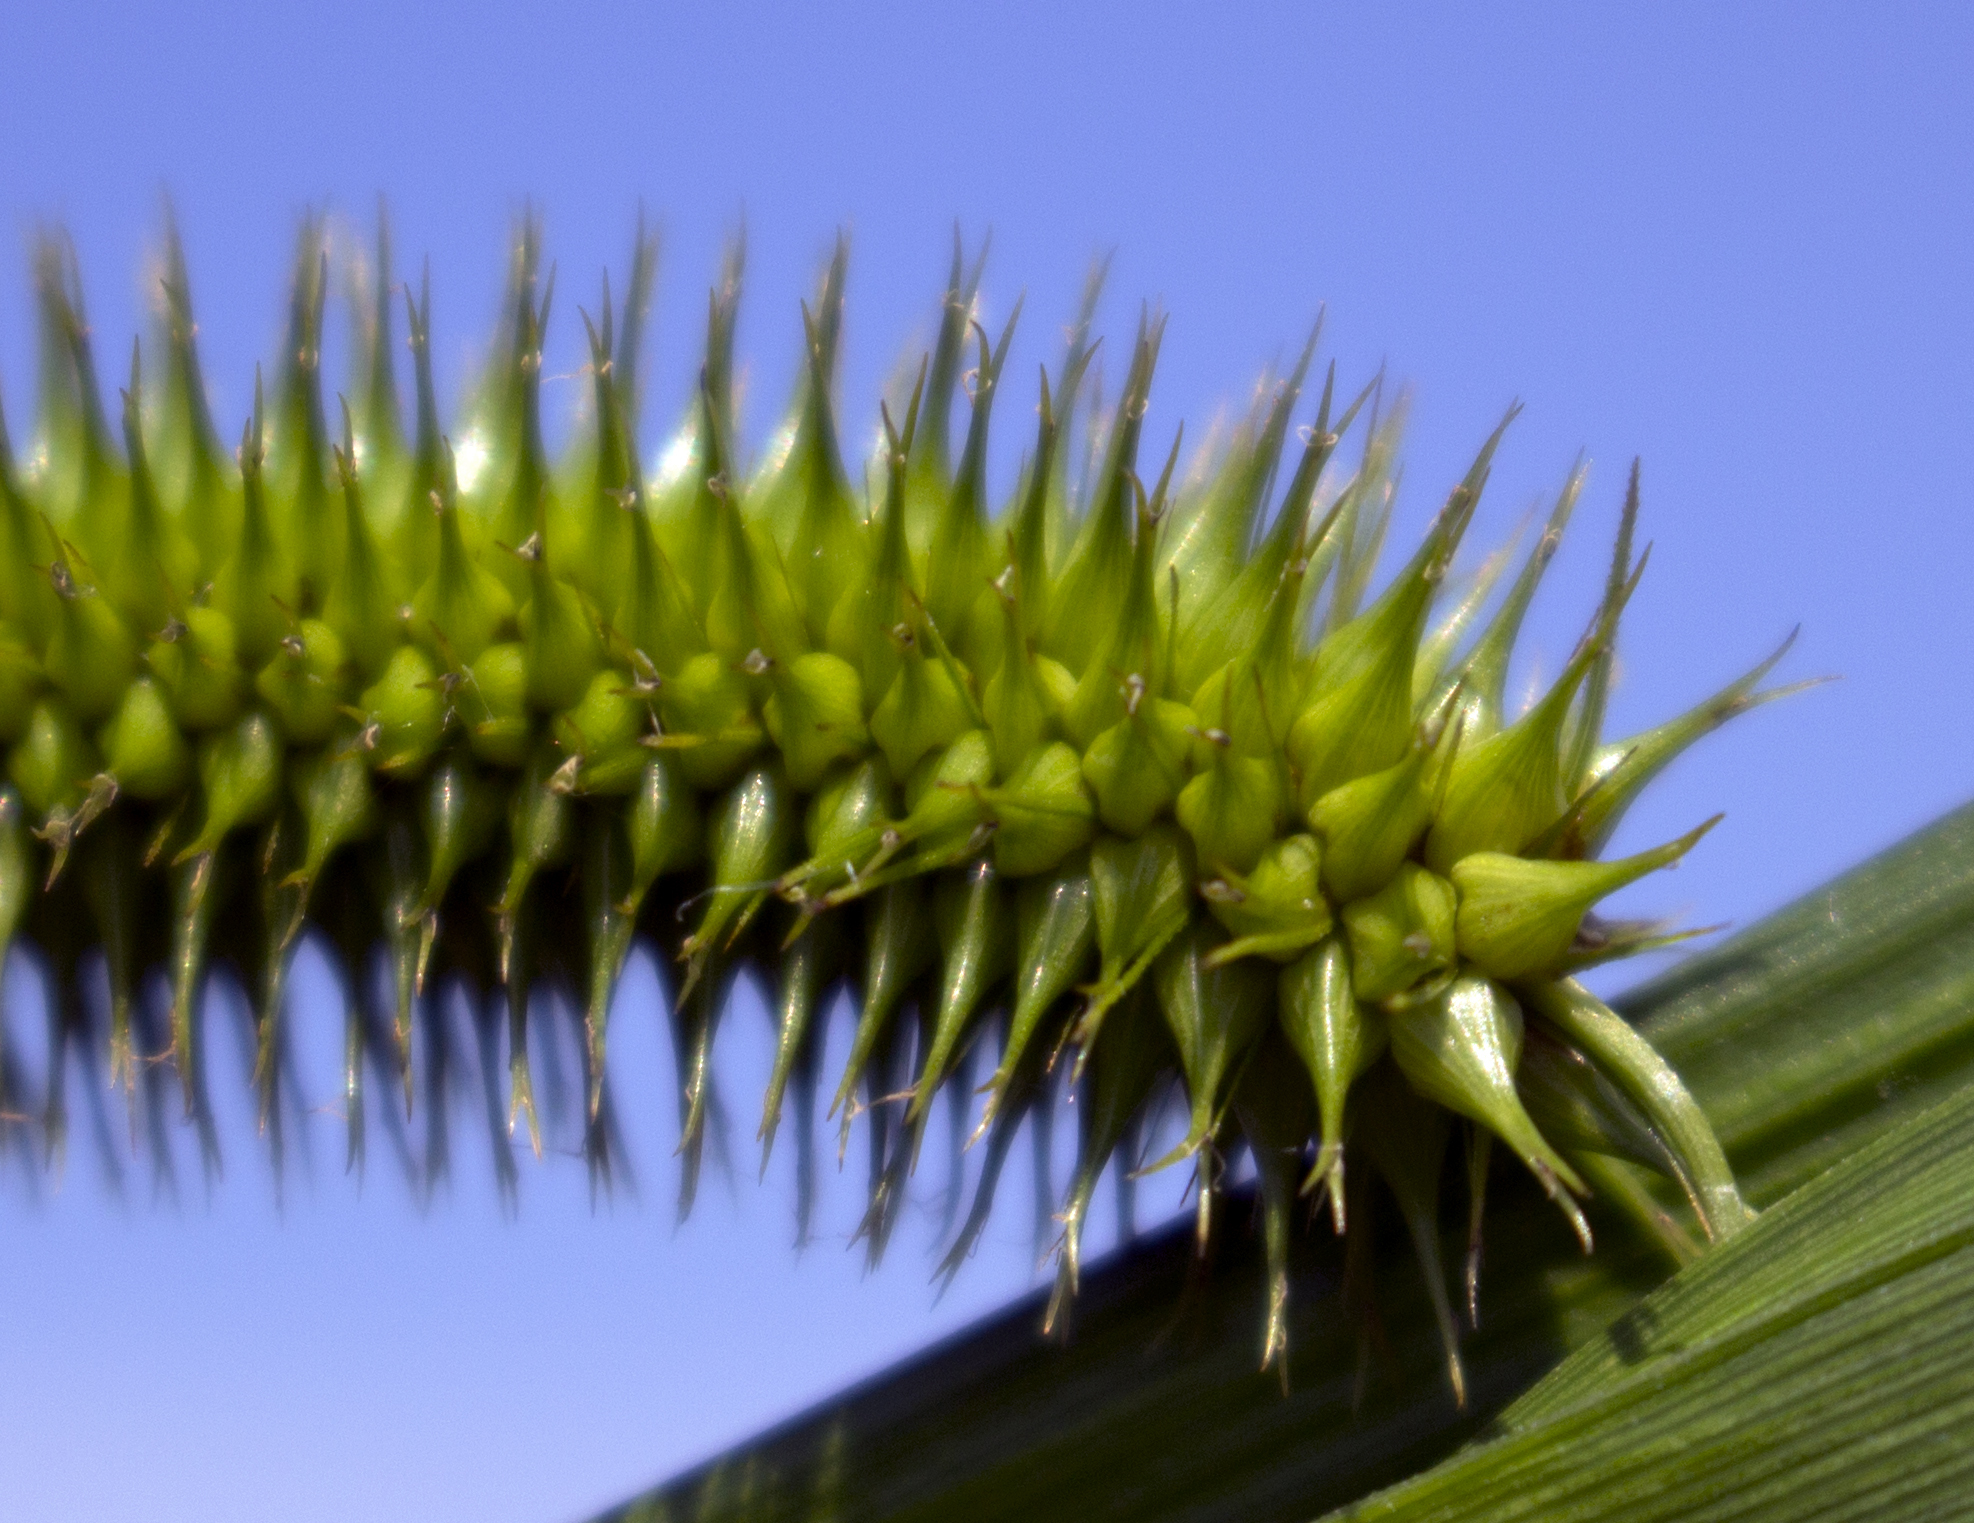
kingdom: Plantae
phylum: Tracheophyta
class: Liliopsida
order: Poales
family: Cyperaceae
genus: Carex
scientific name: Carex comosa
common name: Bristly sedge
